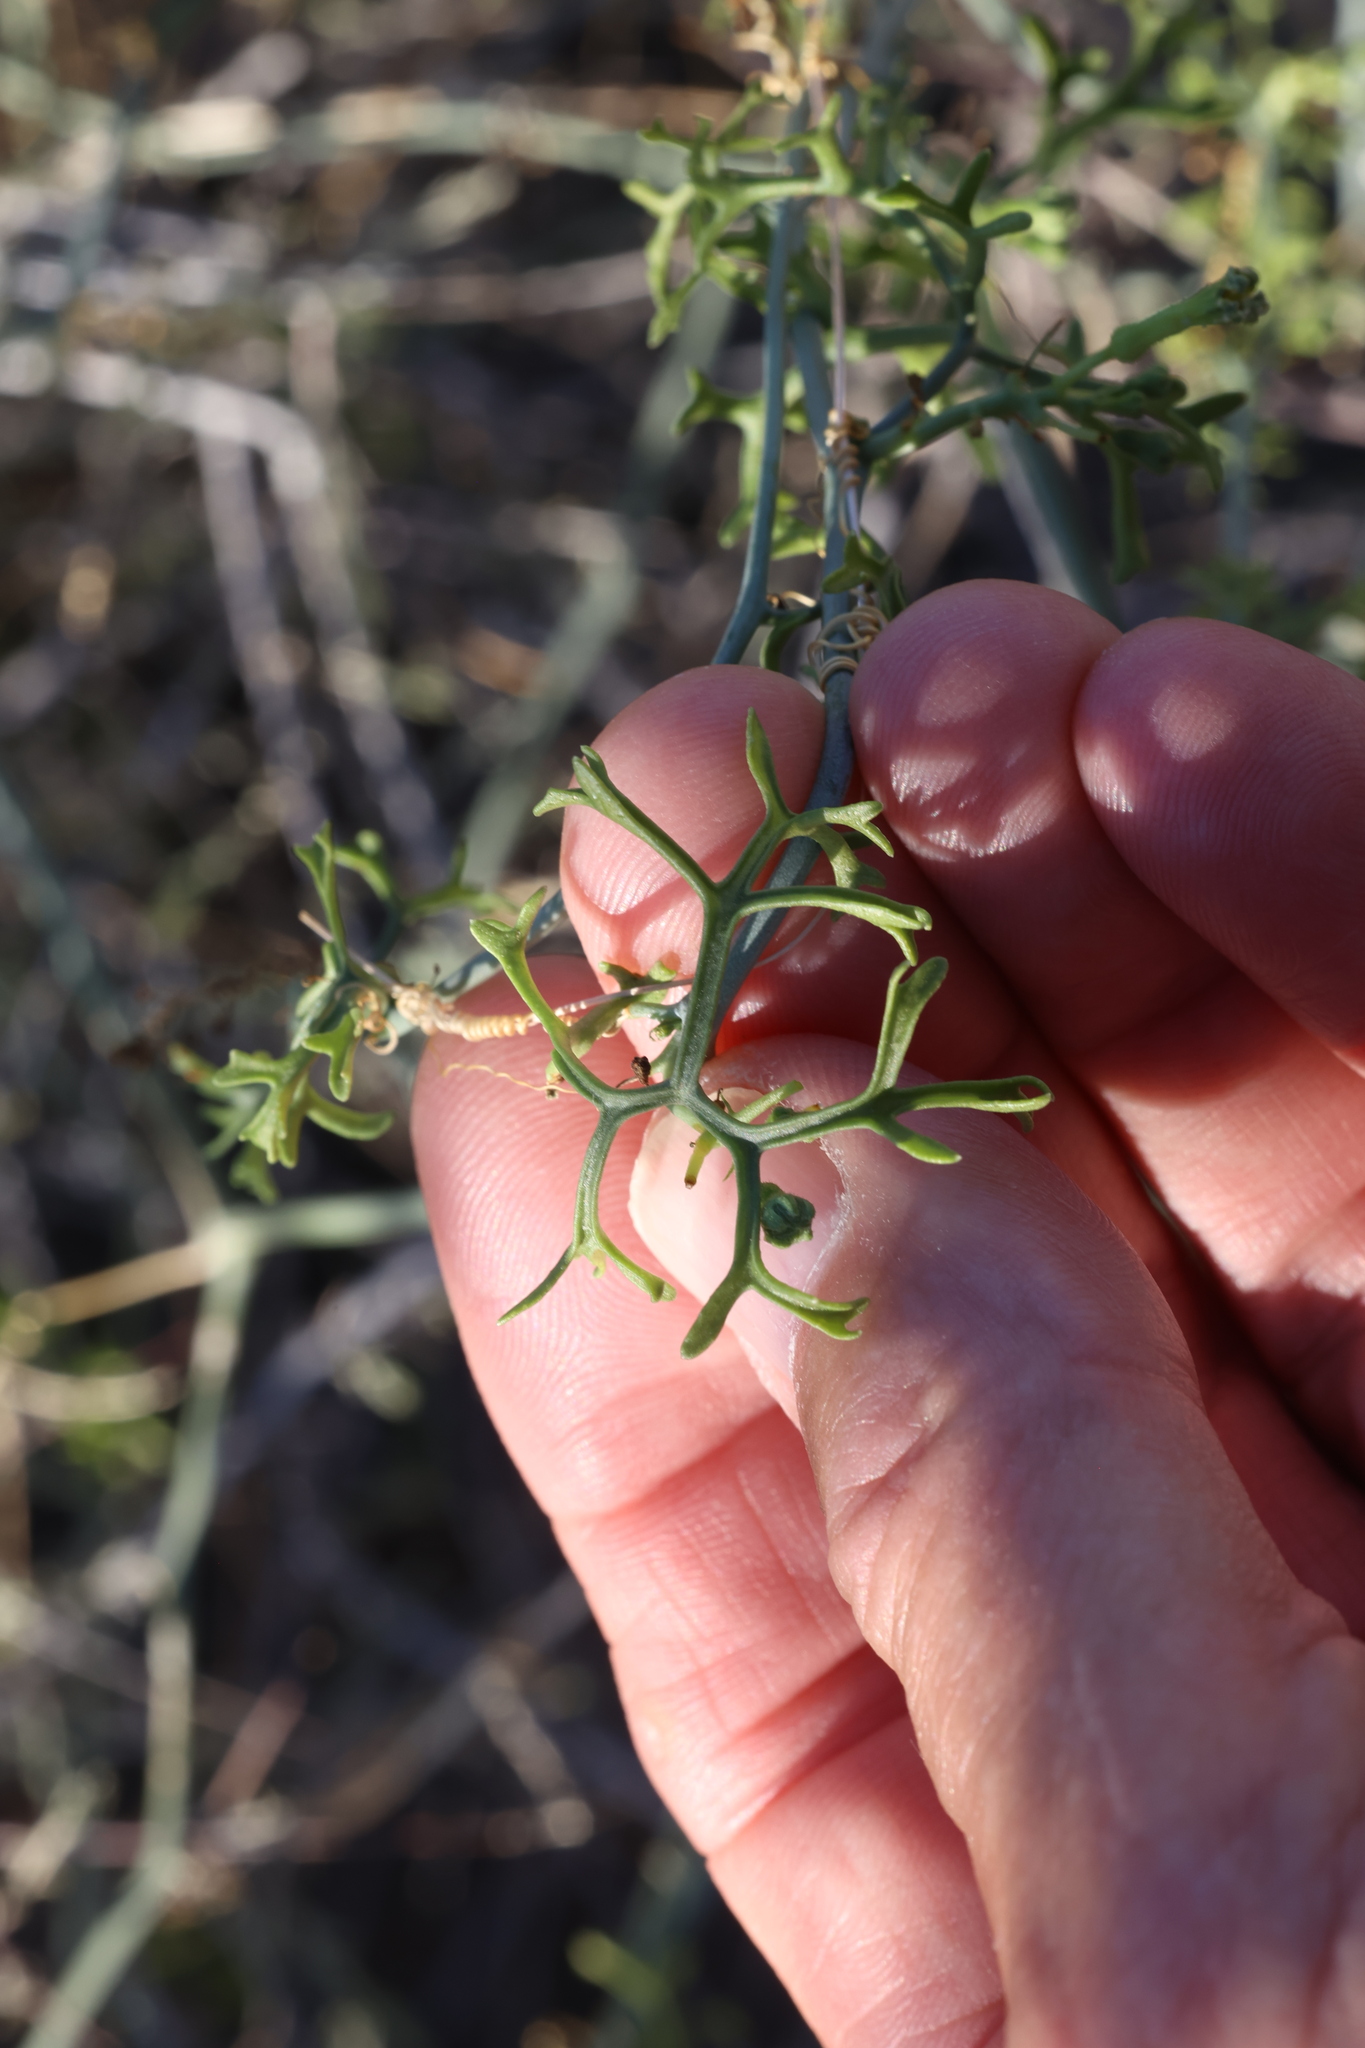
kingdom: Plantae
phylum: Tracheophyta
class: Magnoliopsida
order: Cucurbitales
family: Cucurbitaceae
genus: Ibervillea
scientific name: Ibervillea tenuisecta
